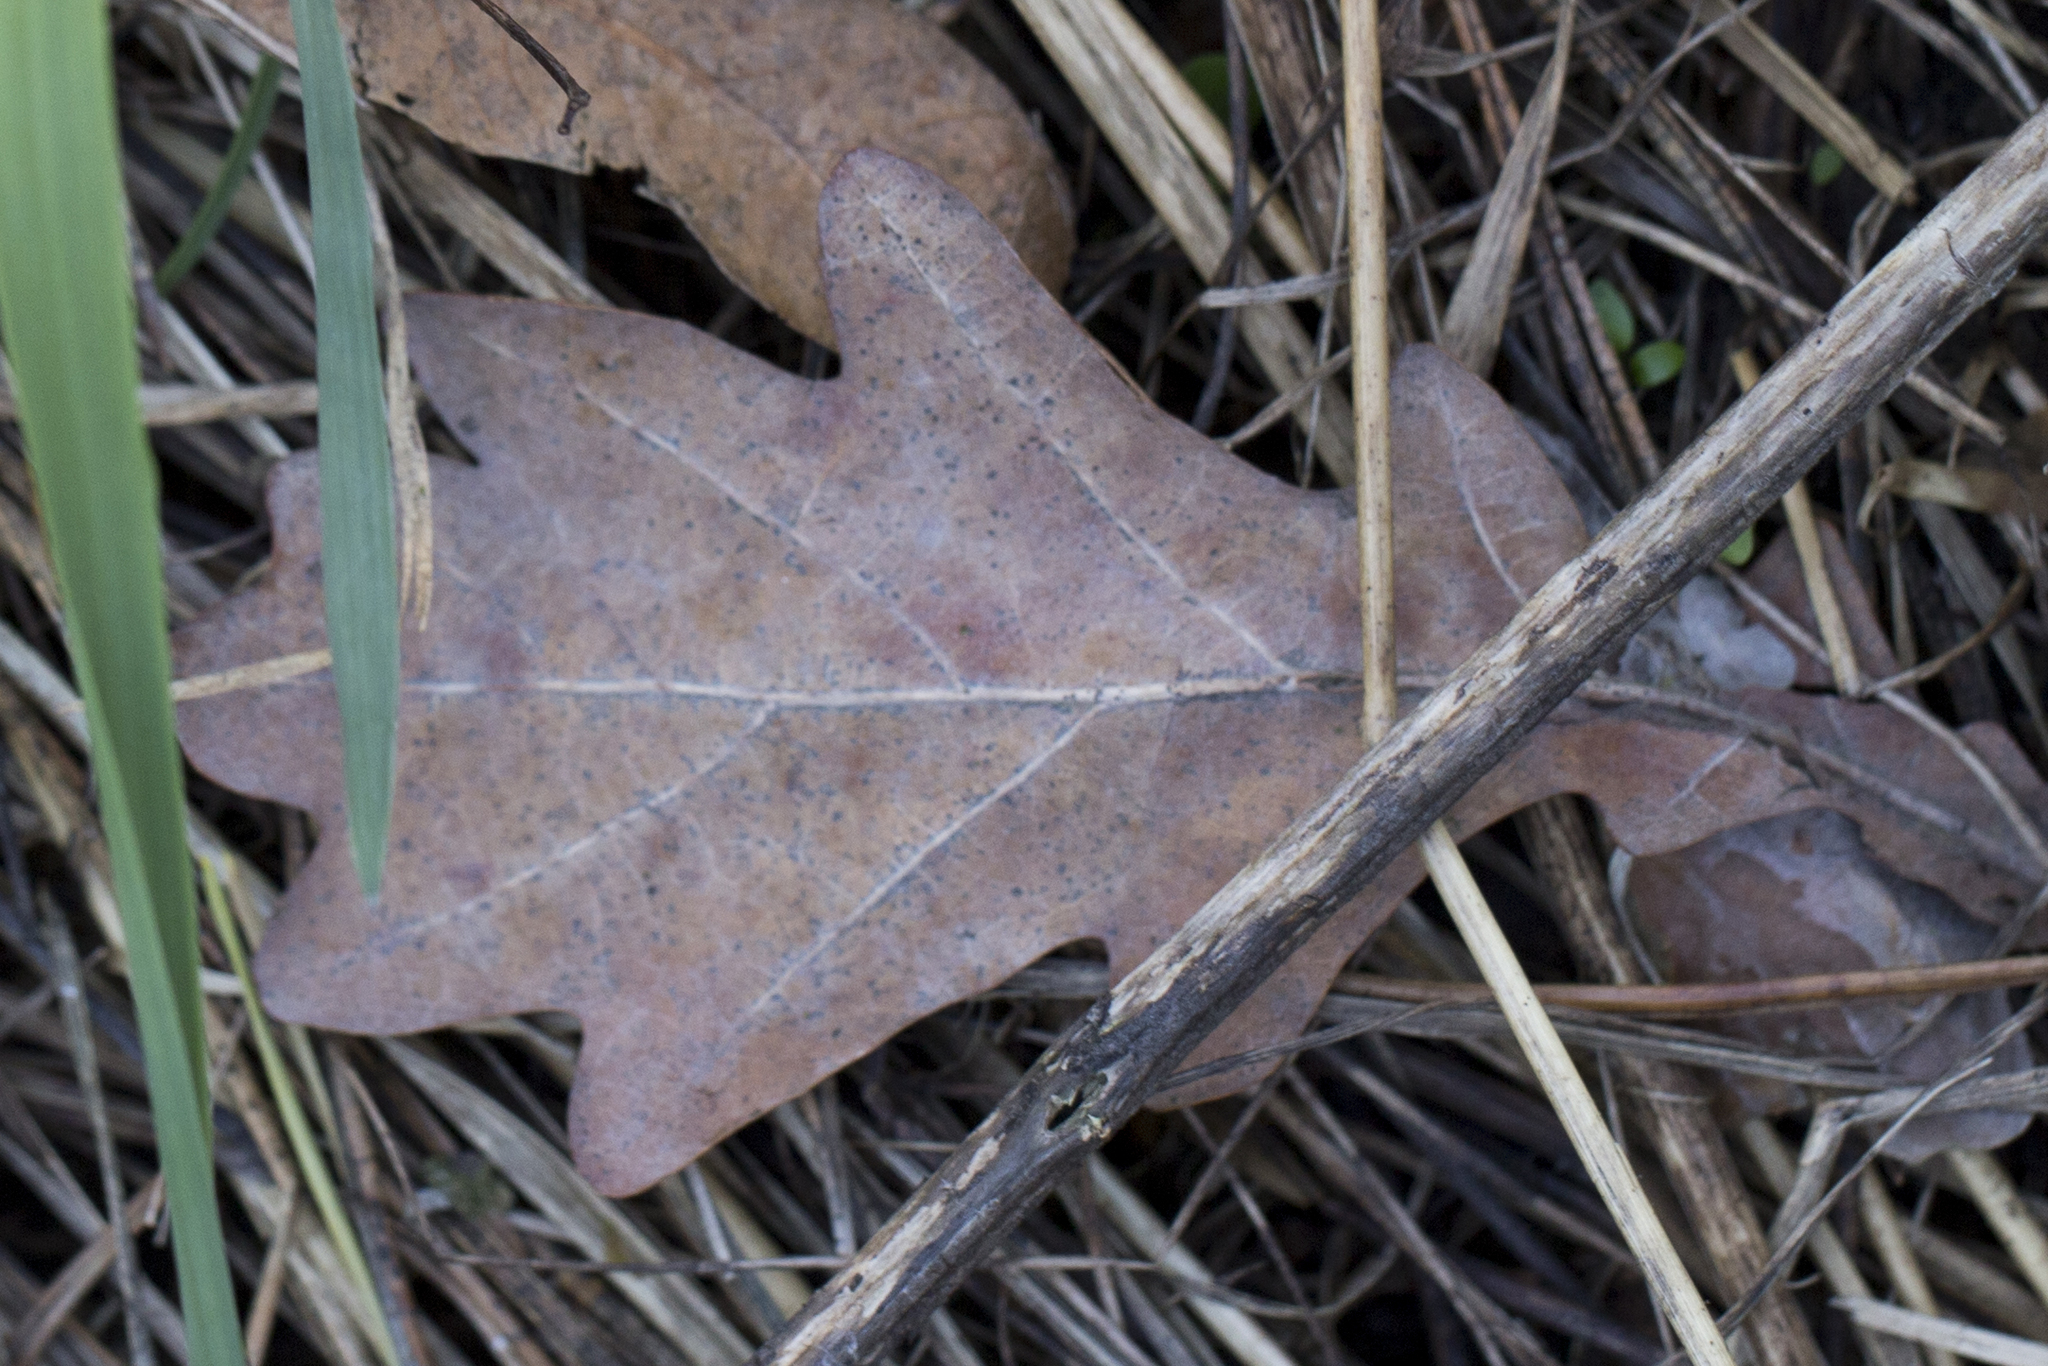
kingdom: Plantae
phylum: Tracheophyta
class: Magnoliopsida
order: Fagales
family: Fagaceae
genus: Quercus
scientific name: Quercus robur
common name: Pedunculate oak
